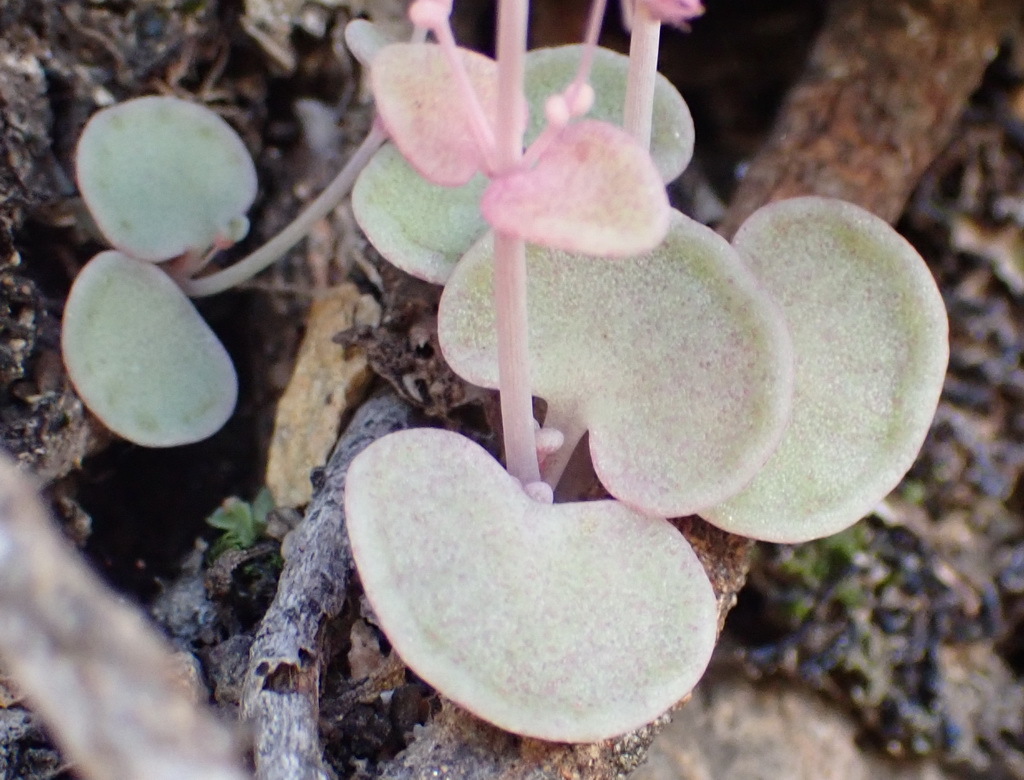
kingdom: Plantae
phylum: Tracheophyta
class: Magnoliopsida
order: Saxifragales
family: Crassulaceae
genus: Crassula
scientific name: Crassula nemorosa
